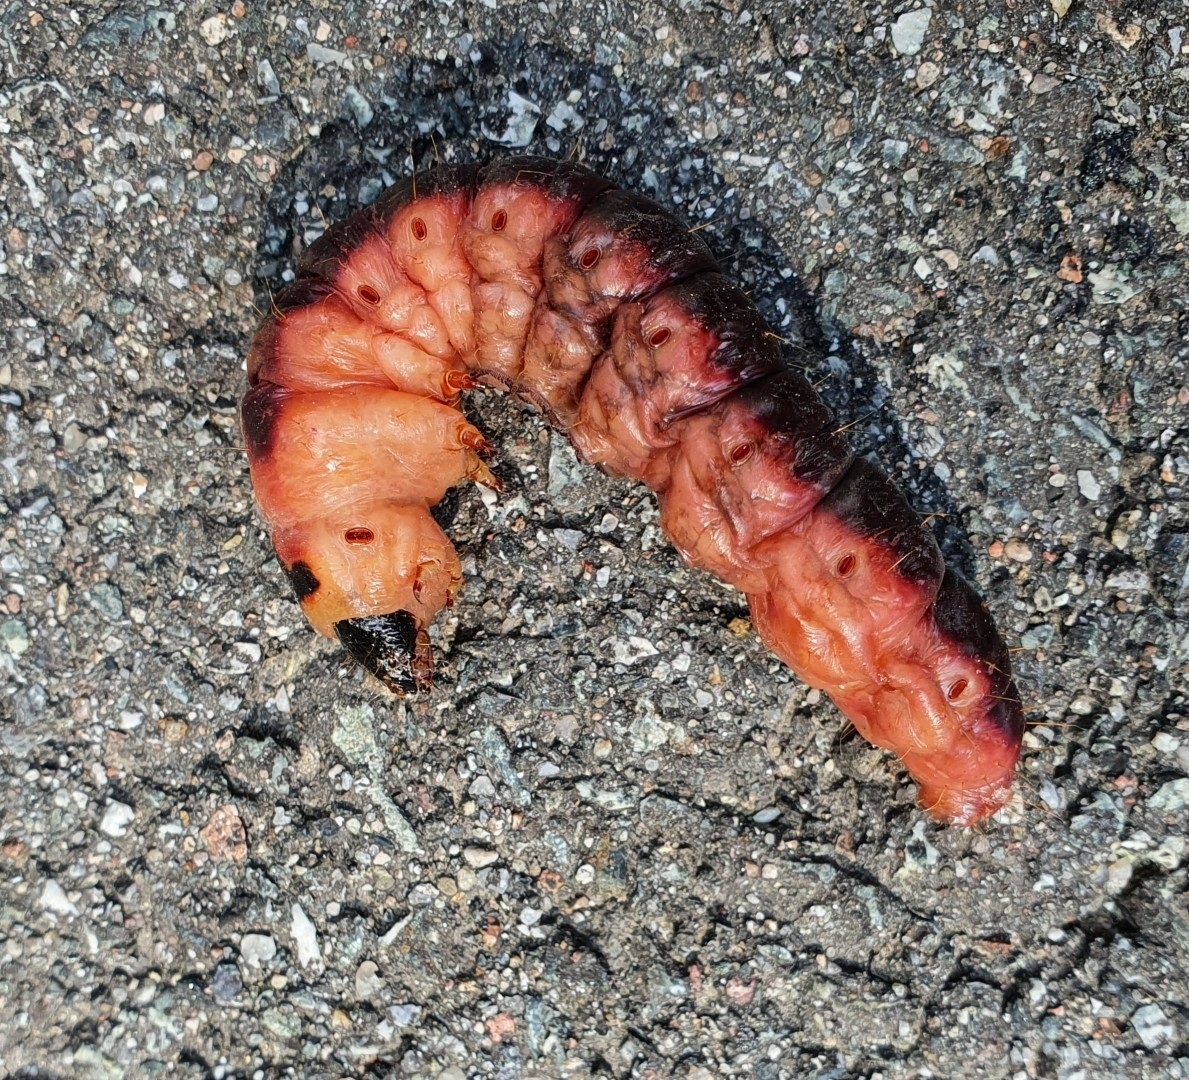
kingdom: Animalia
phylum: Arthropoda
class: Insecta
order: Lepidoptera
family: Cossidae
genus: Cossus
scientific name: Cossus cossus
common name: Goat moth
